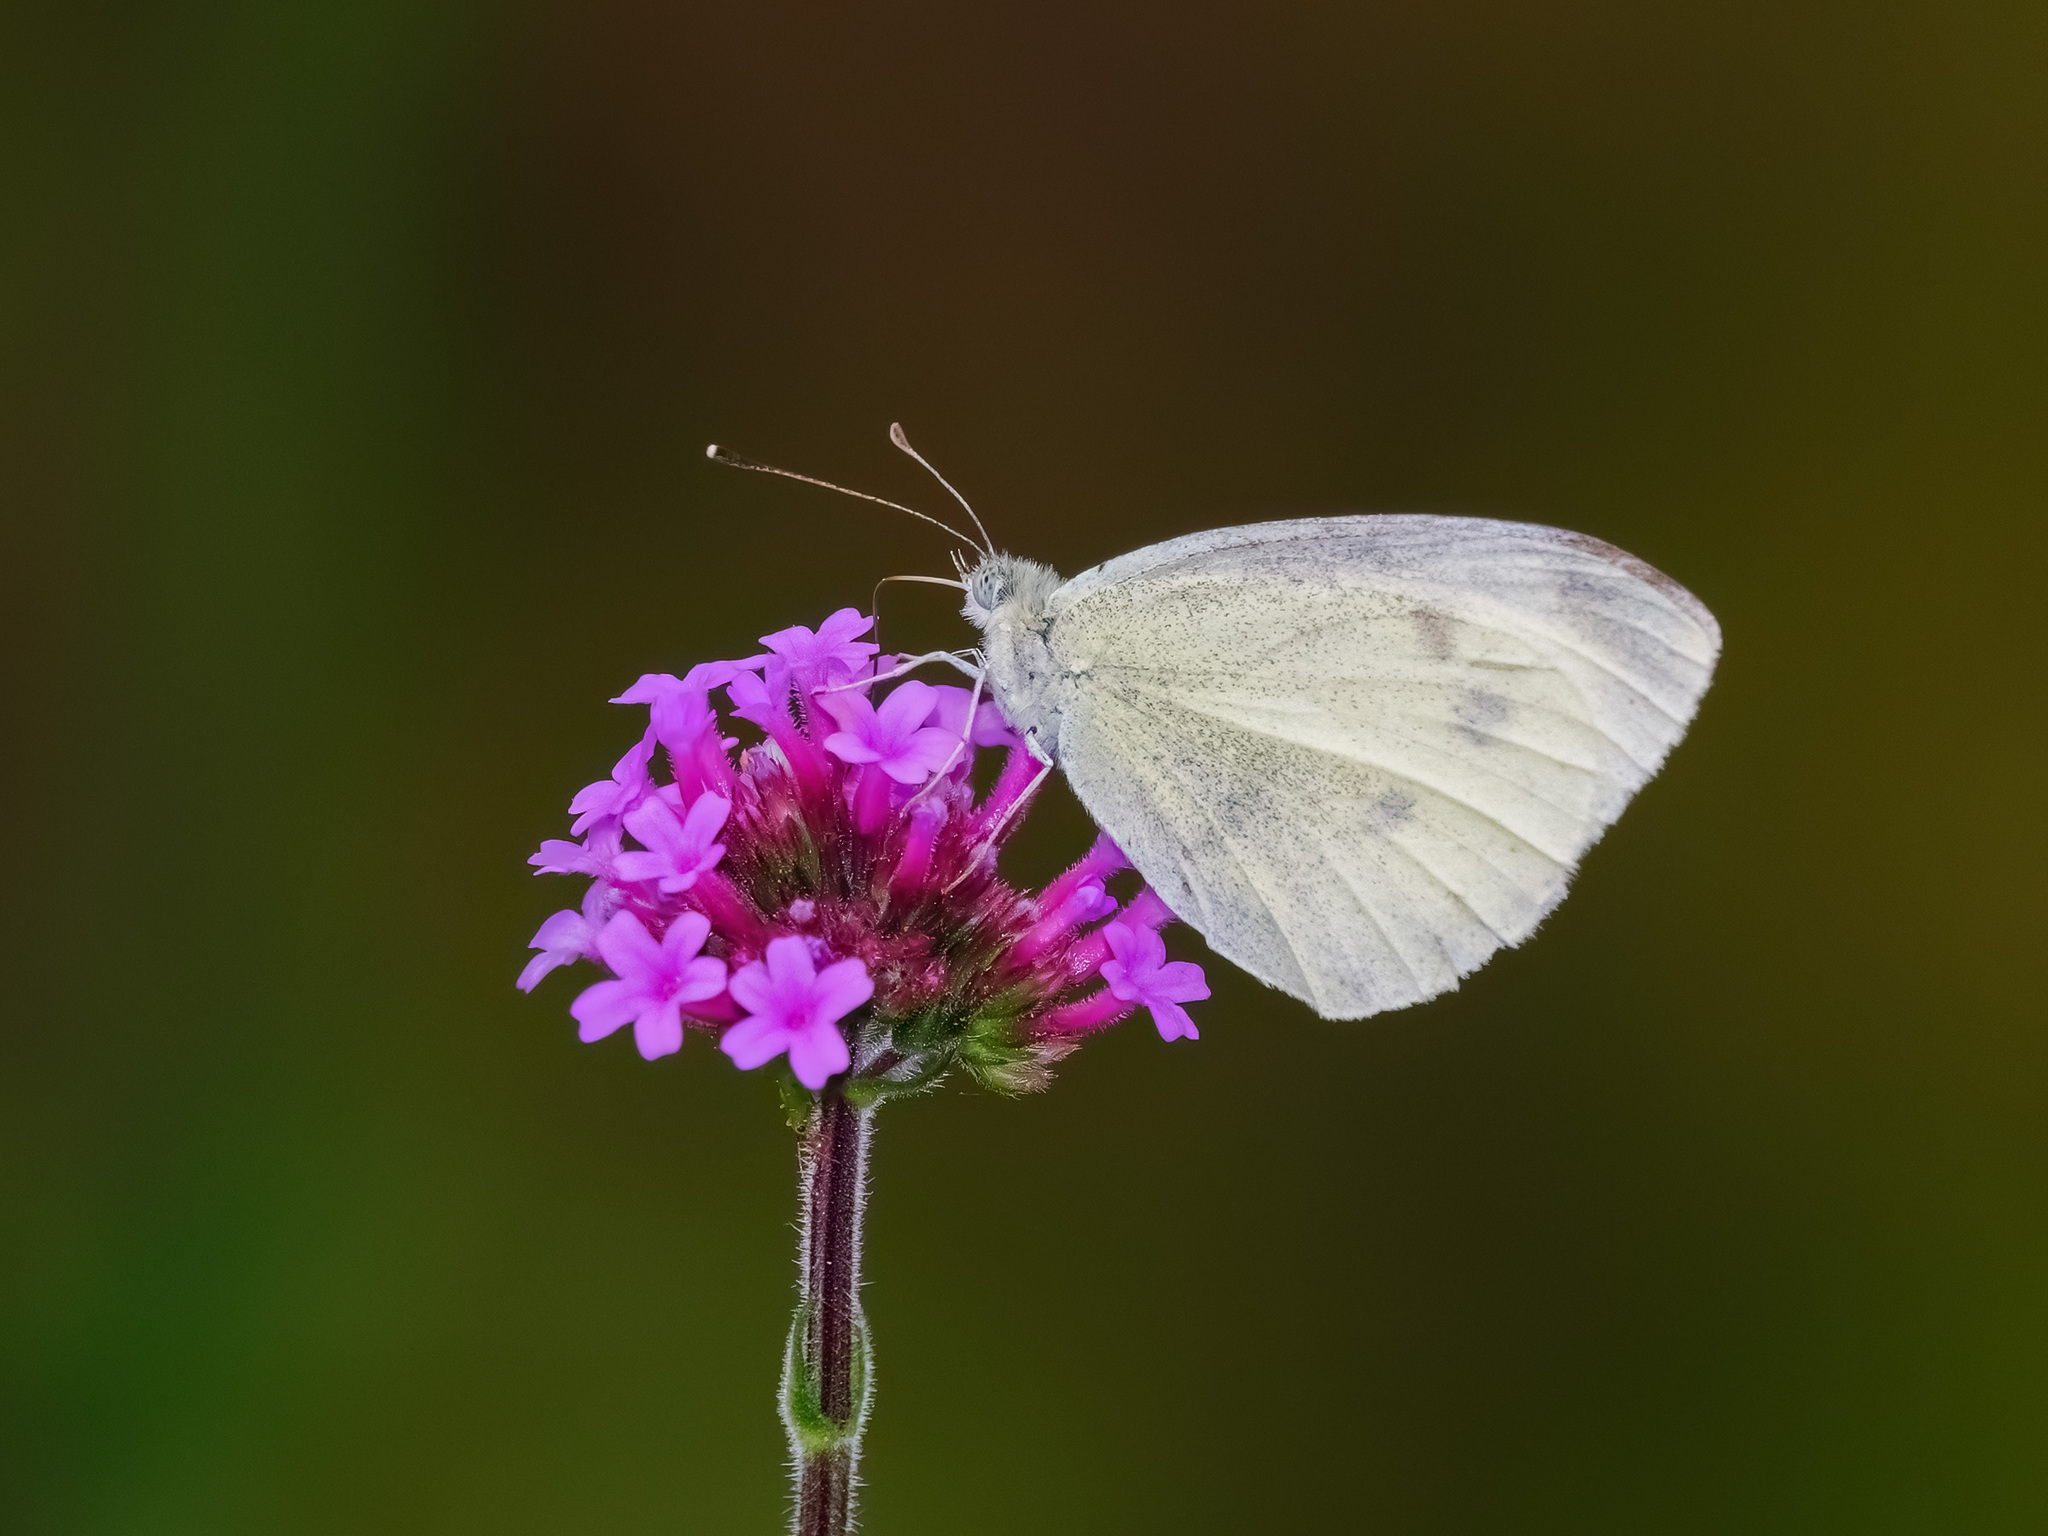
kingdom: Animalia
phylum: Arthropoda
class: Insecta
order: Lepidoptera
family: Pieridae
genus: Pieris
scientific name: Pieris rapae
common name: Small white
